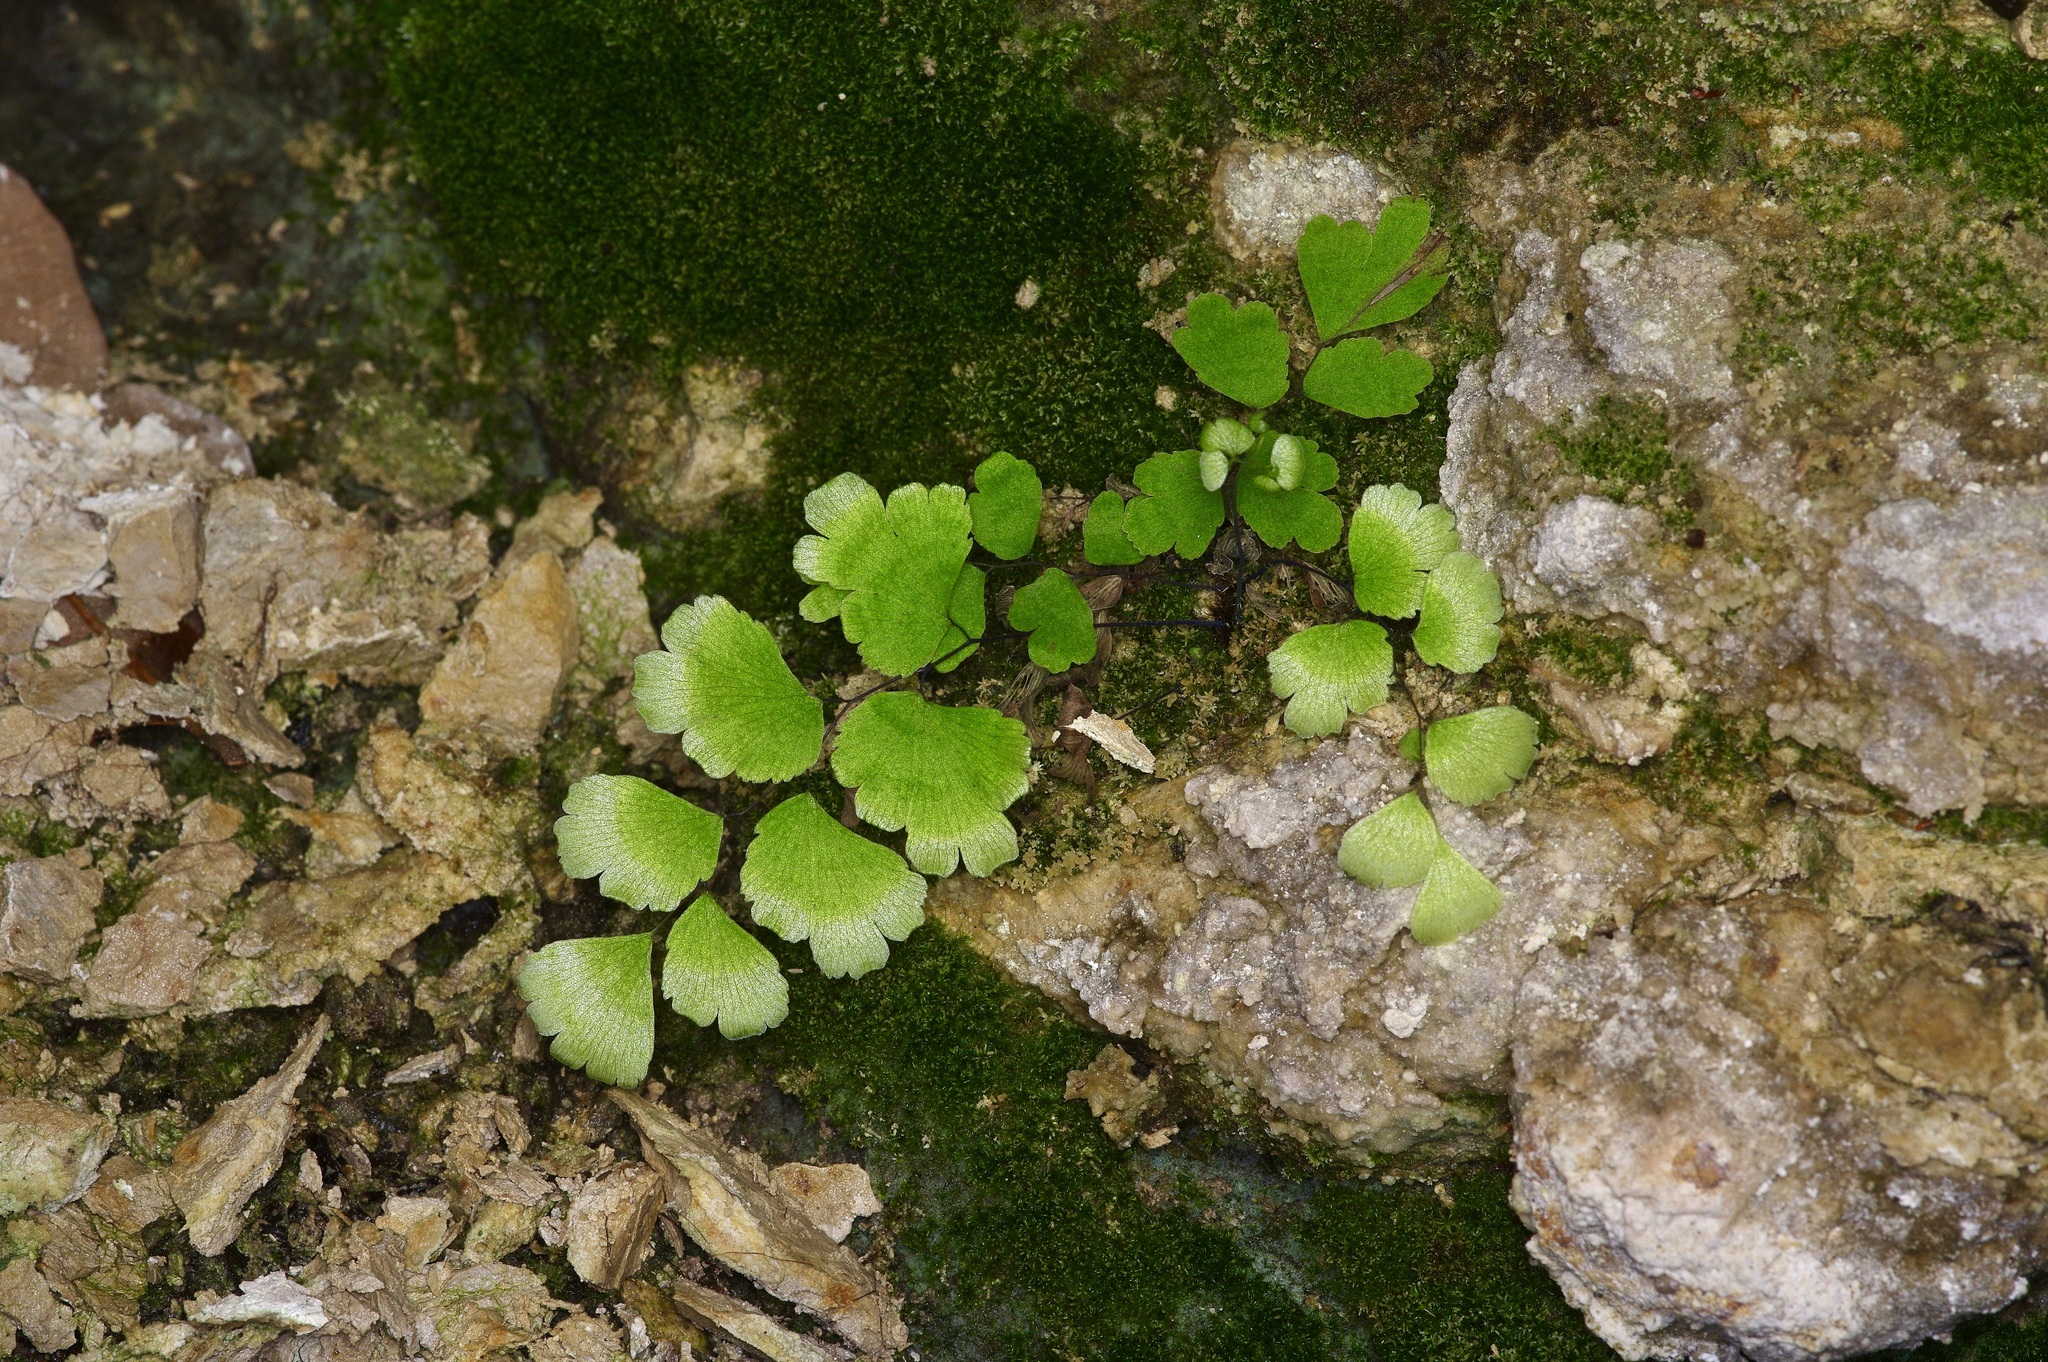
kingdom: Plantae
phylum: Tracheophyta
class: Polypodiopsida
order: Polypodiales
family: Pteridaceae
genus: Adiantum
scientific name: Adiantum capillus-veneris
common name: Maidenhair fern
